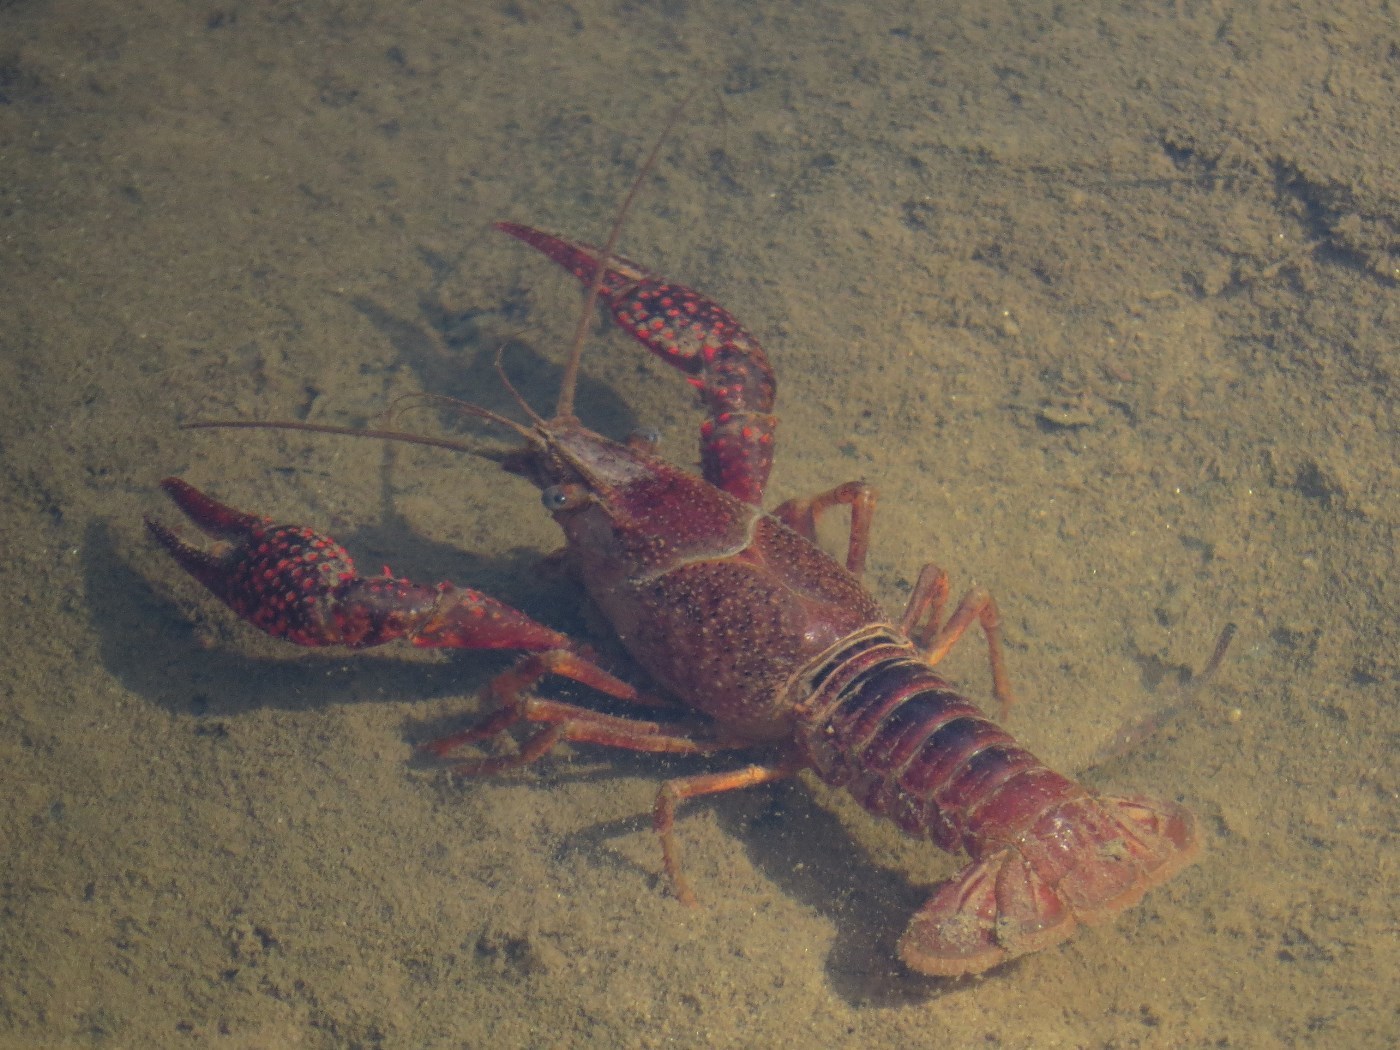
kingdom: Animalia
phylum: Arthropoda
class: Malacostraca
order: Decapoda
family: Cambaridae
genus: Procambarus
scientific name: Procambarus clarkii
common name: Red swamp crayfish
